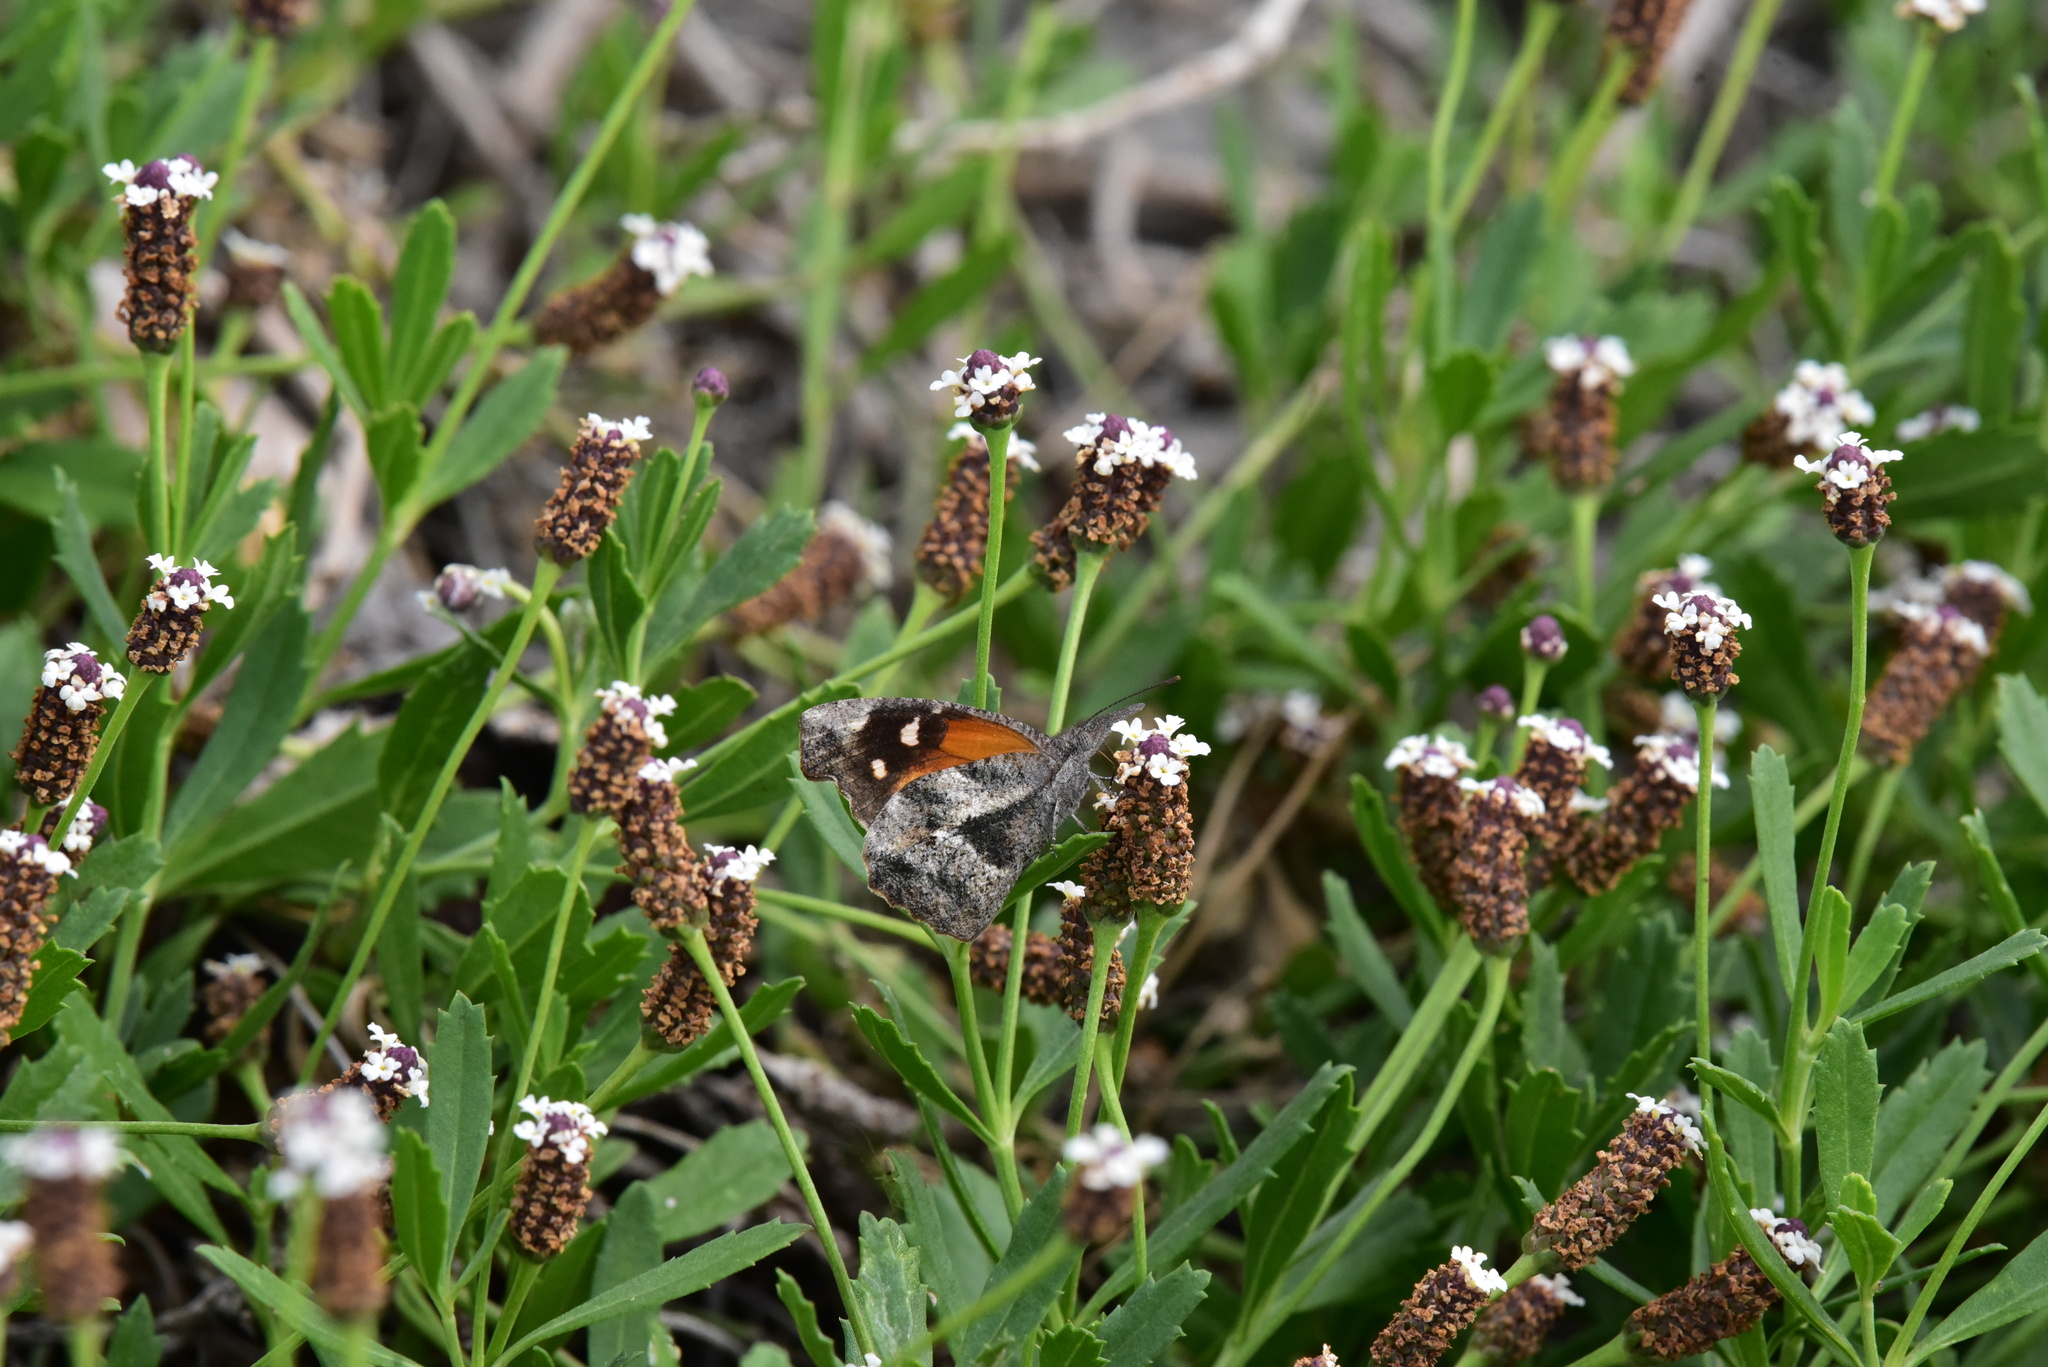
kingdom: Animalia
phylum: Arthropoda
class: Insecta
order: Lepidoptera
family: Nymphalidae
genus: Libytheana
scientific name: Libytheana carinenta
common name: American snout
